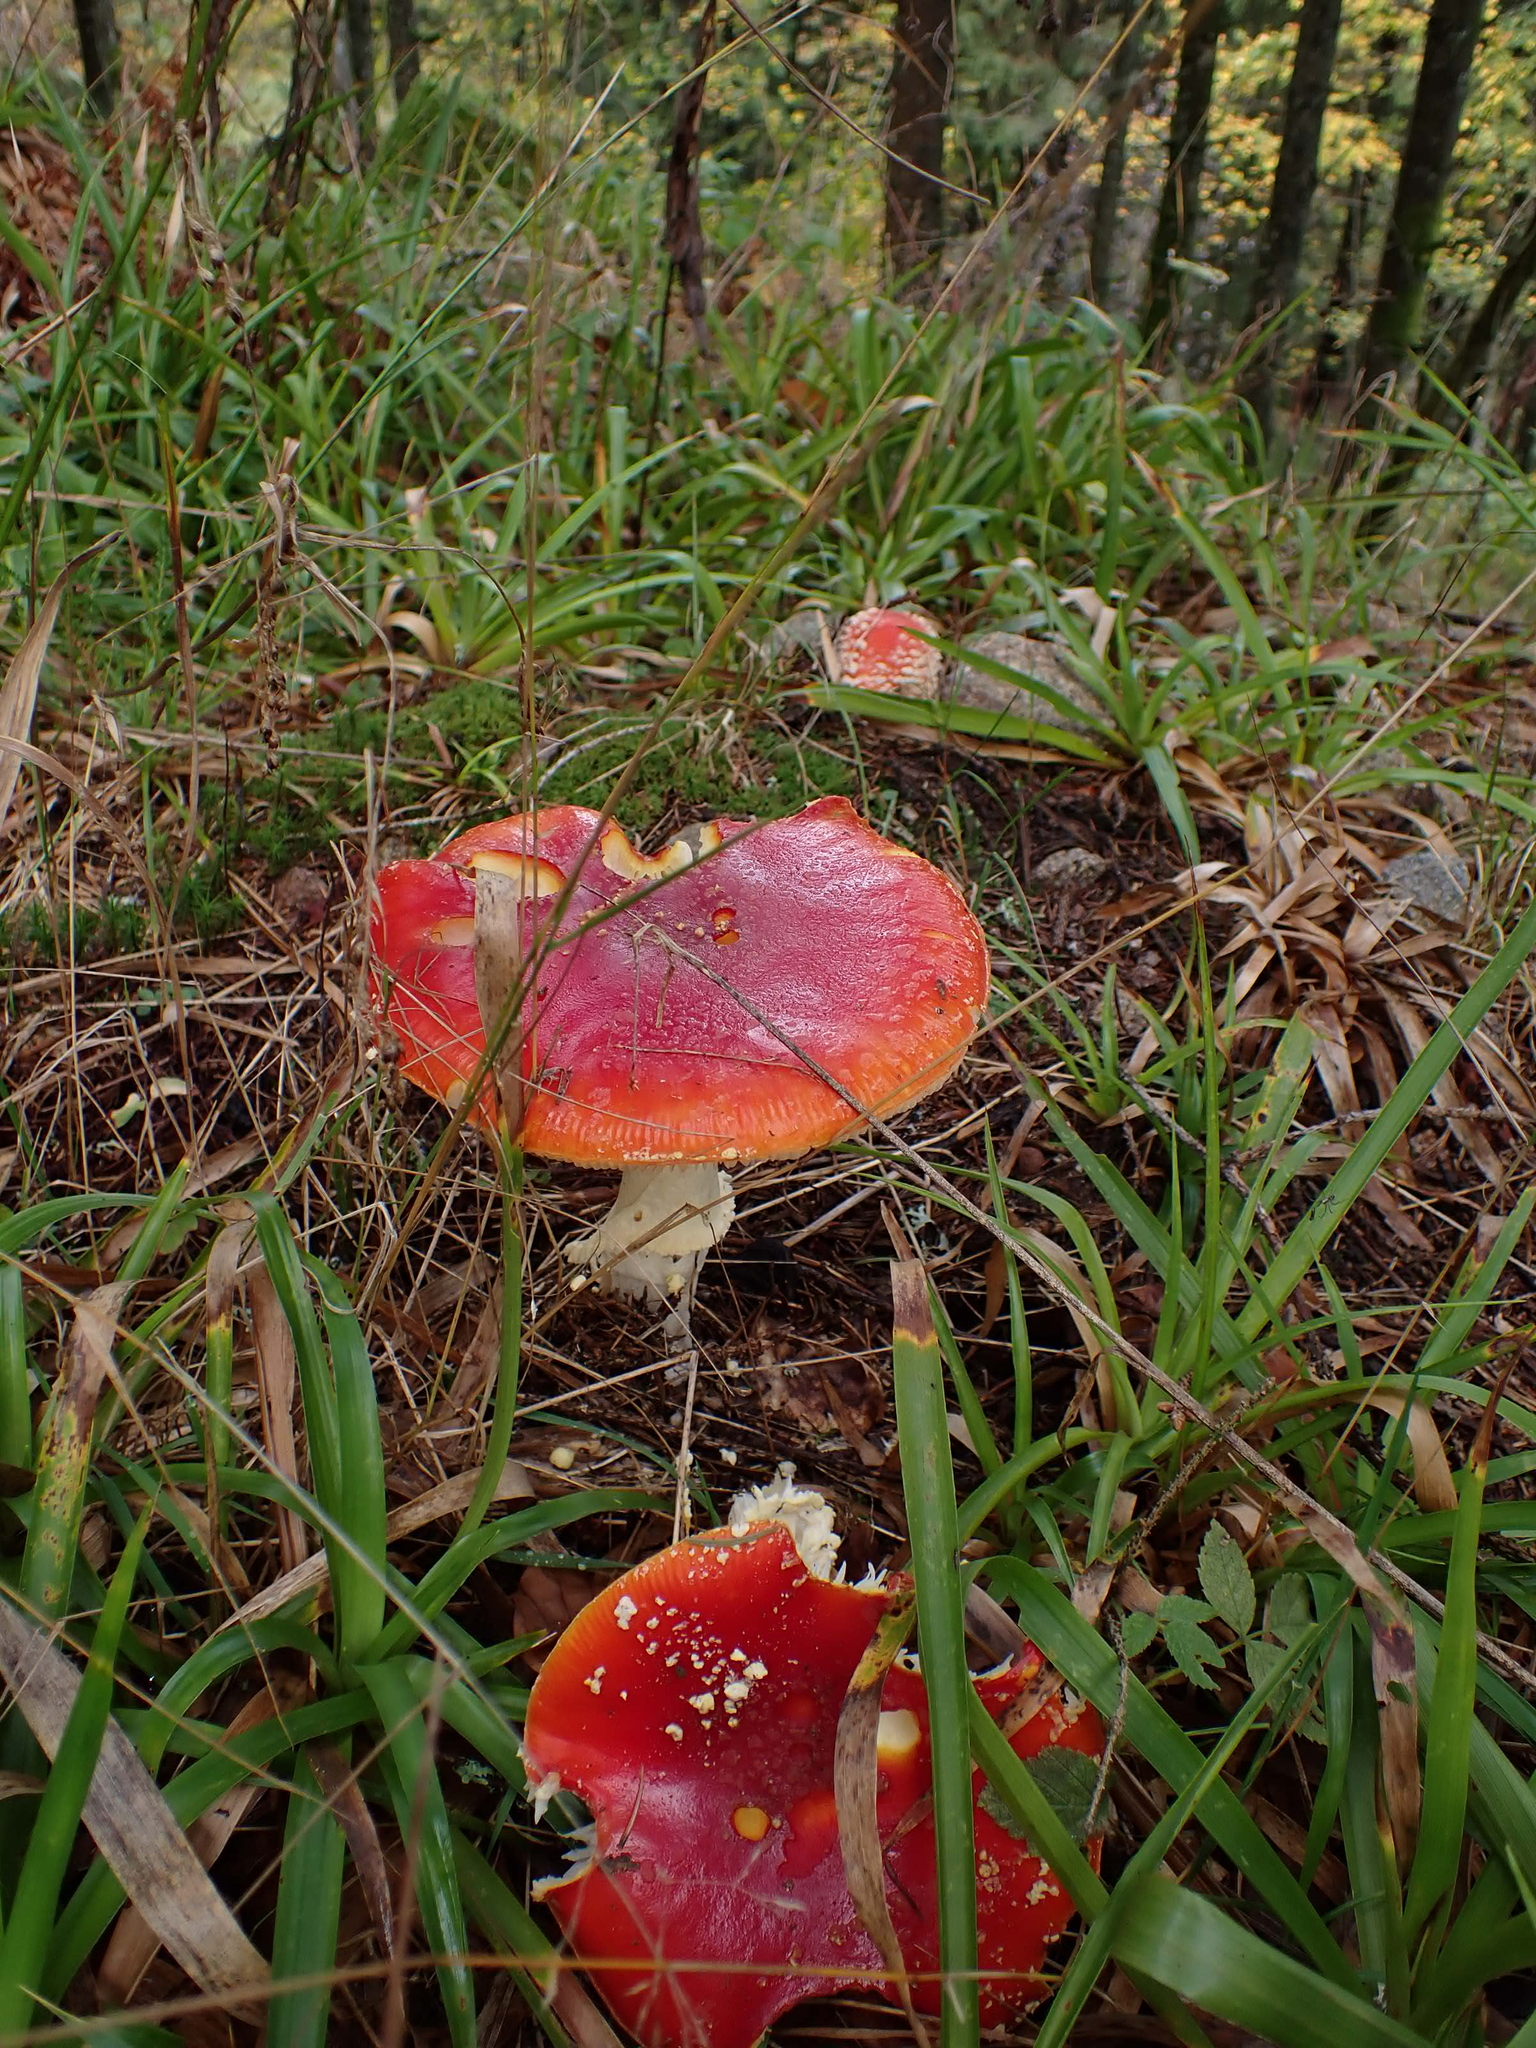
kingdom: Fungi
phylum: Basidiomycota
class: Agaricomycetes
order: Agaricales
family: Amanitaceae
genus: Amanita
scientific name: Amanita muscaria
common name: Fly agaric
